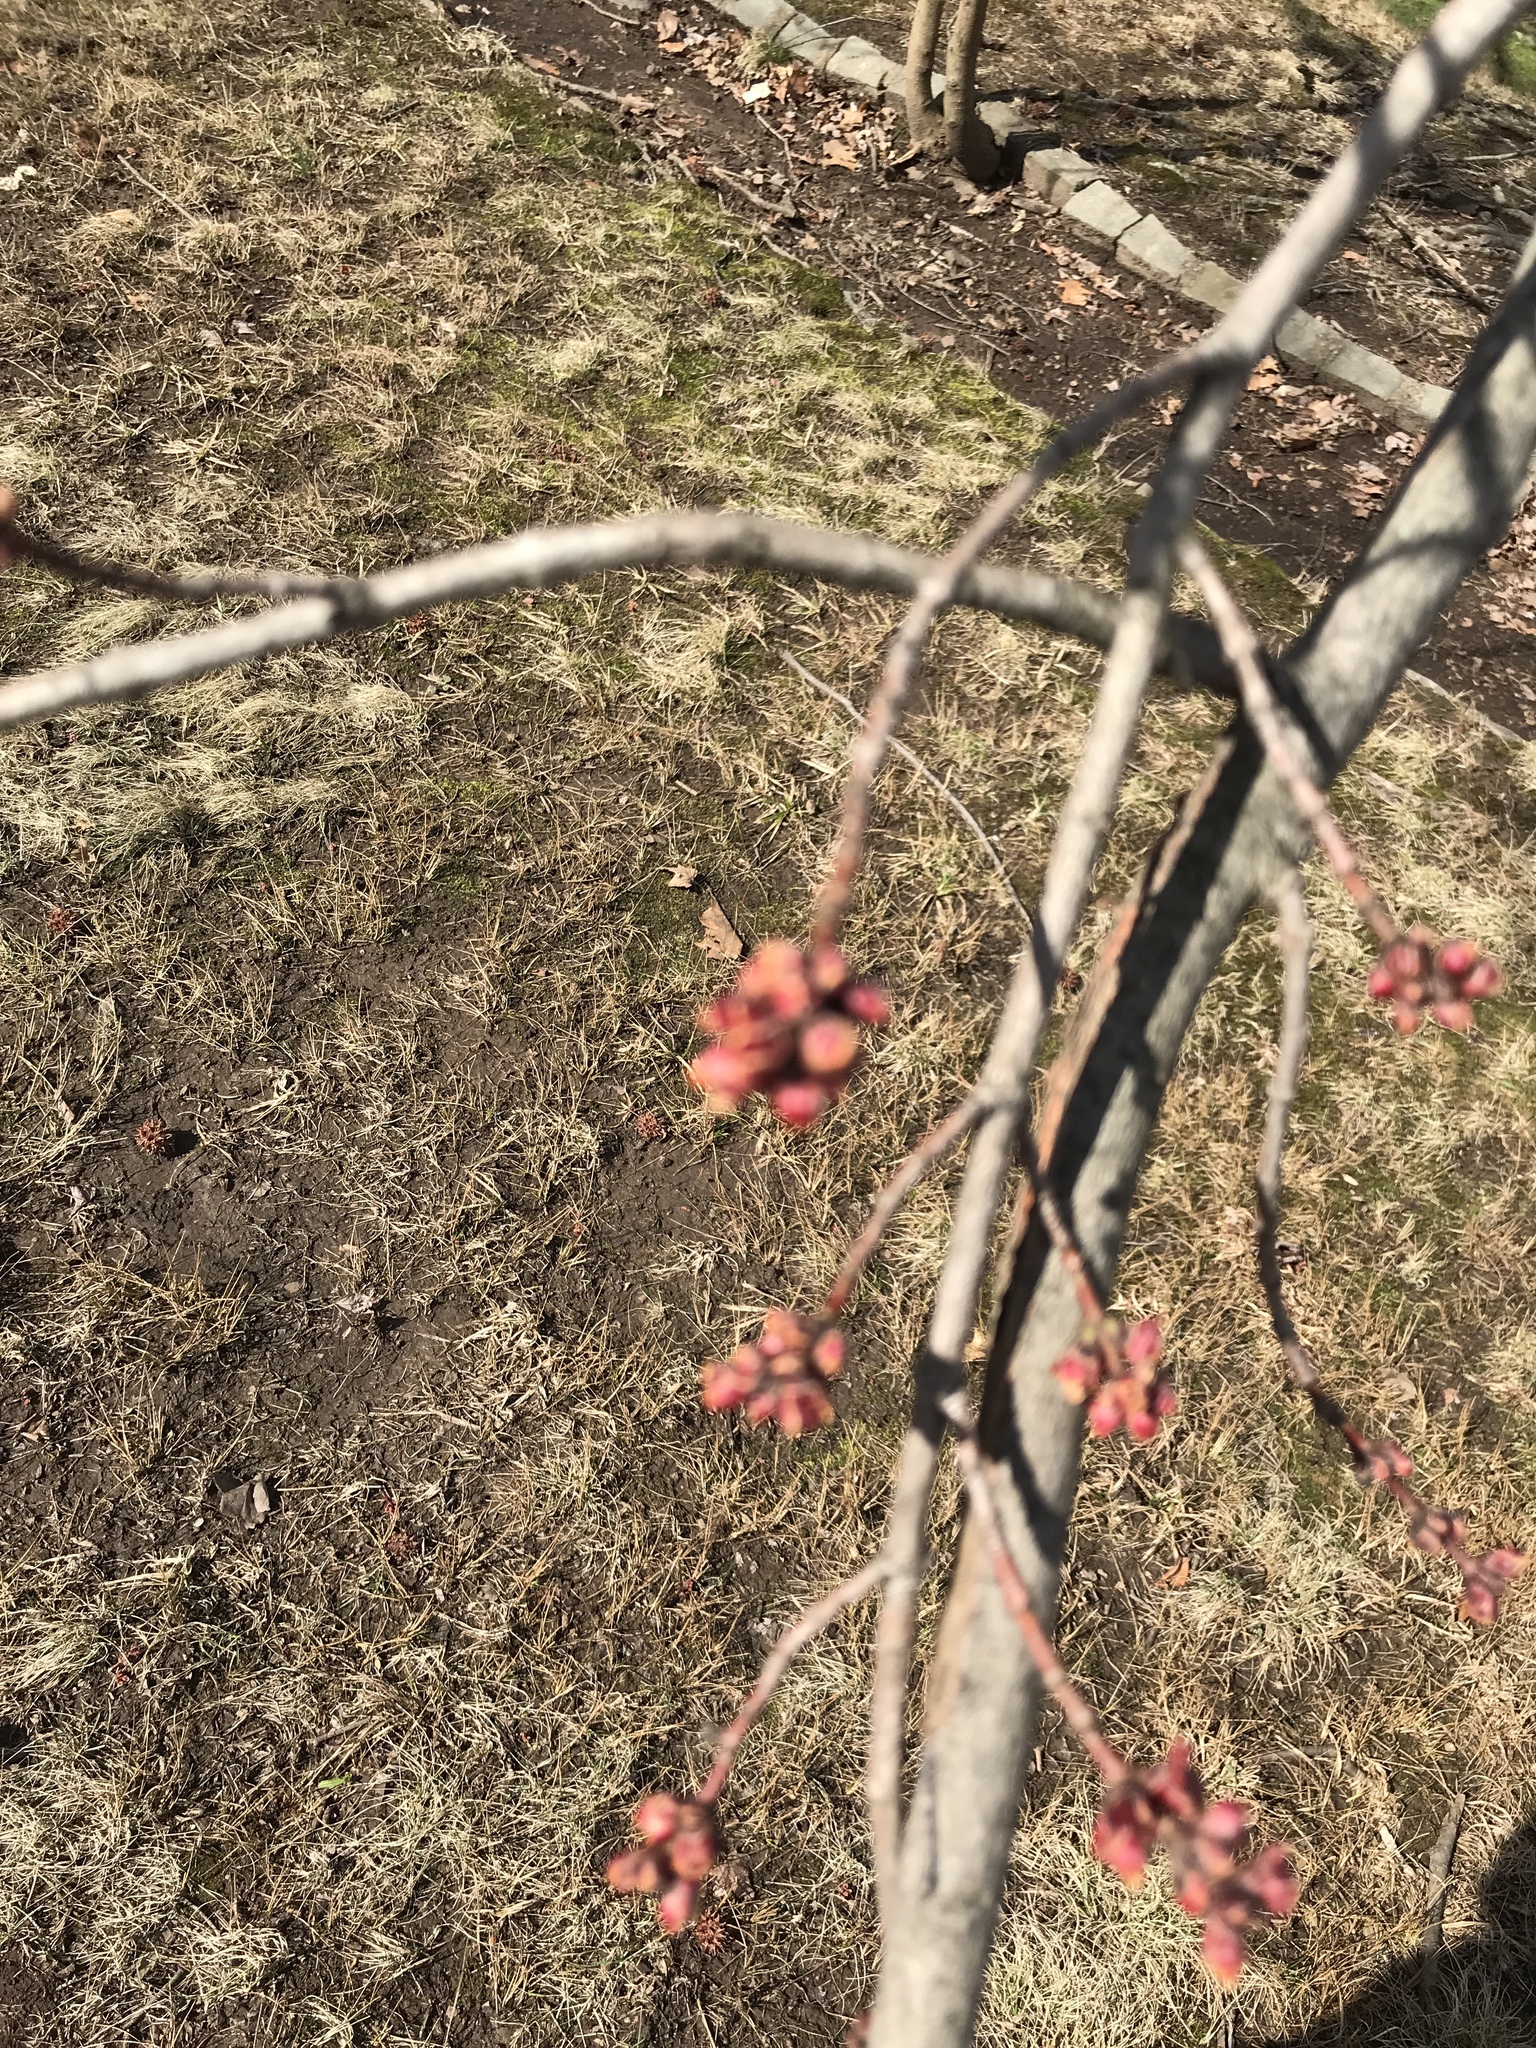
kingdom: Plantae
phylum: Tracheophyta
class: Magnoliopsida
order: Sapindales
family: Sapindaceae
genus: Acer
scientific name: Acer rubrum
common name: Red maple
